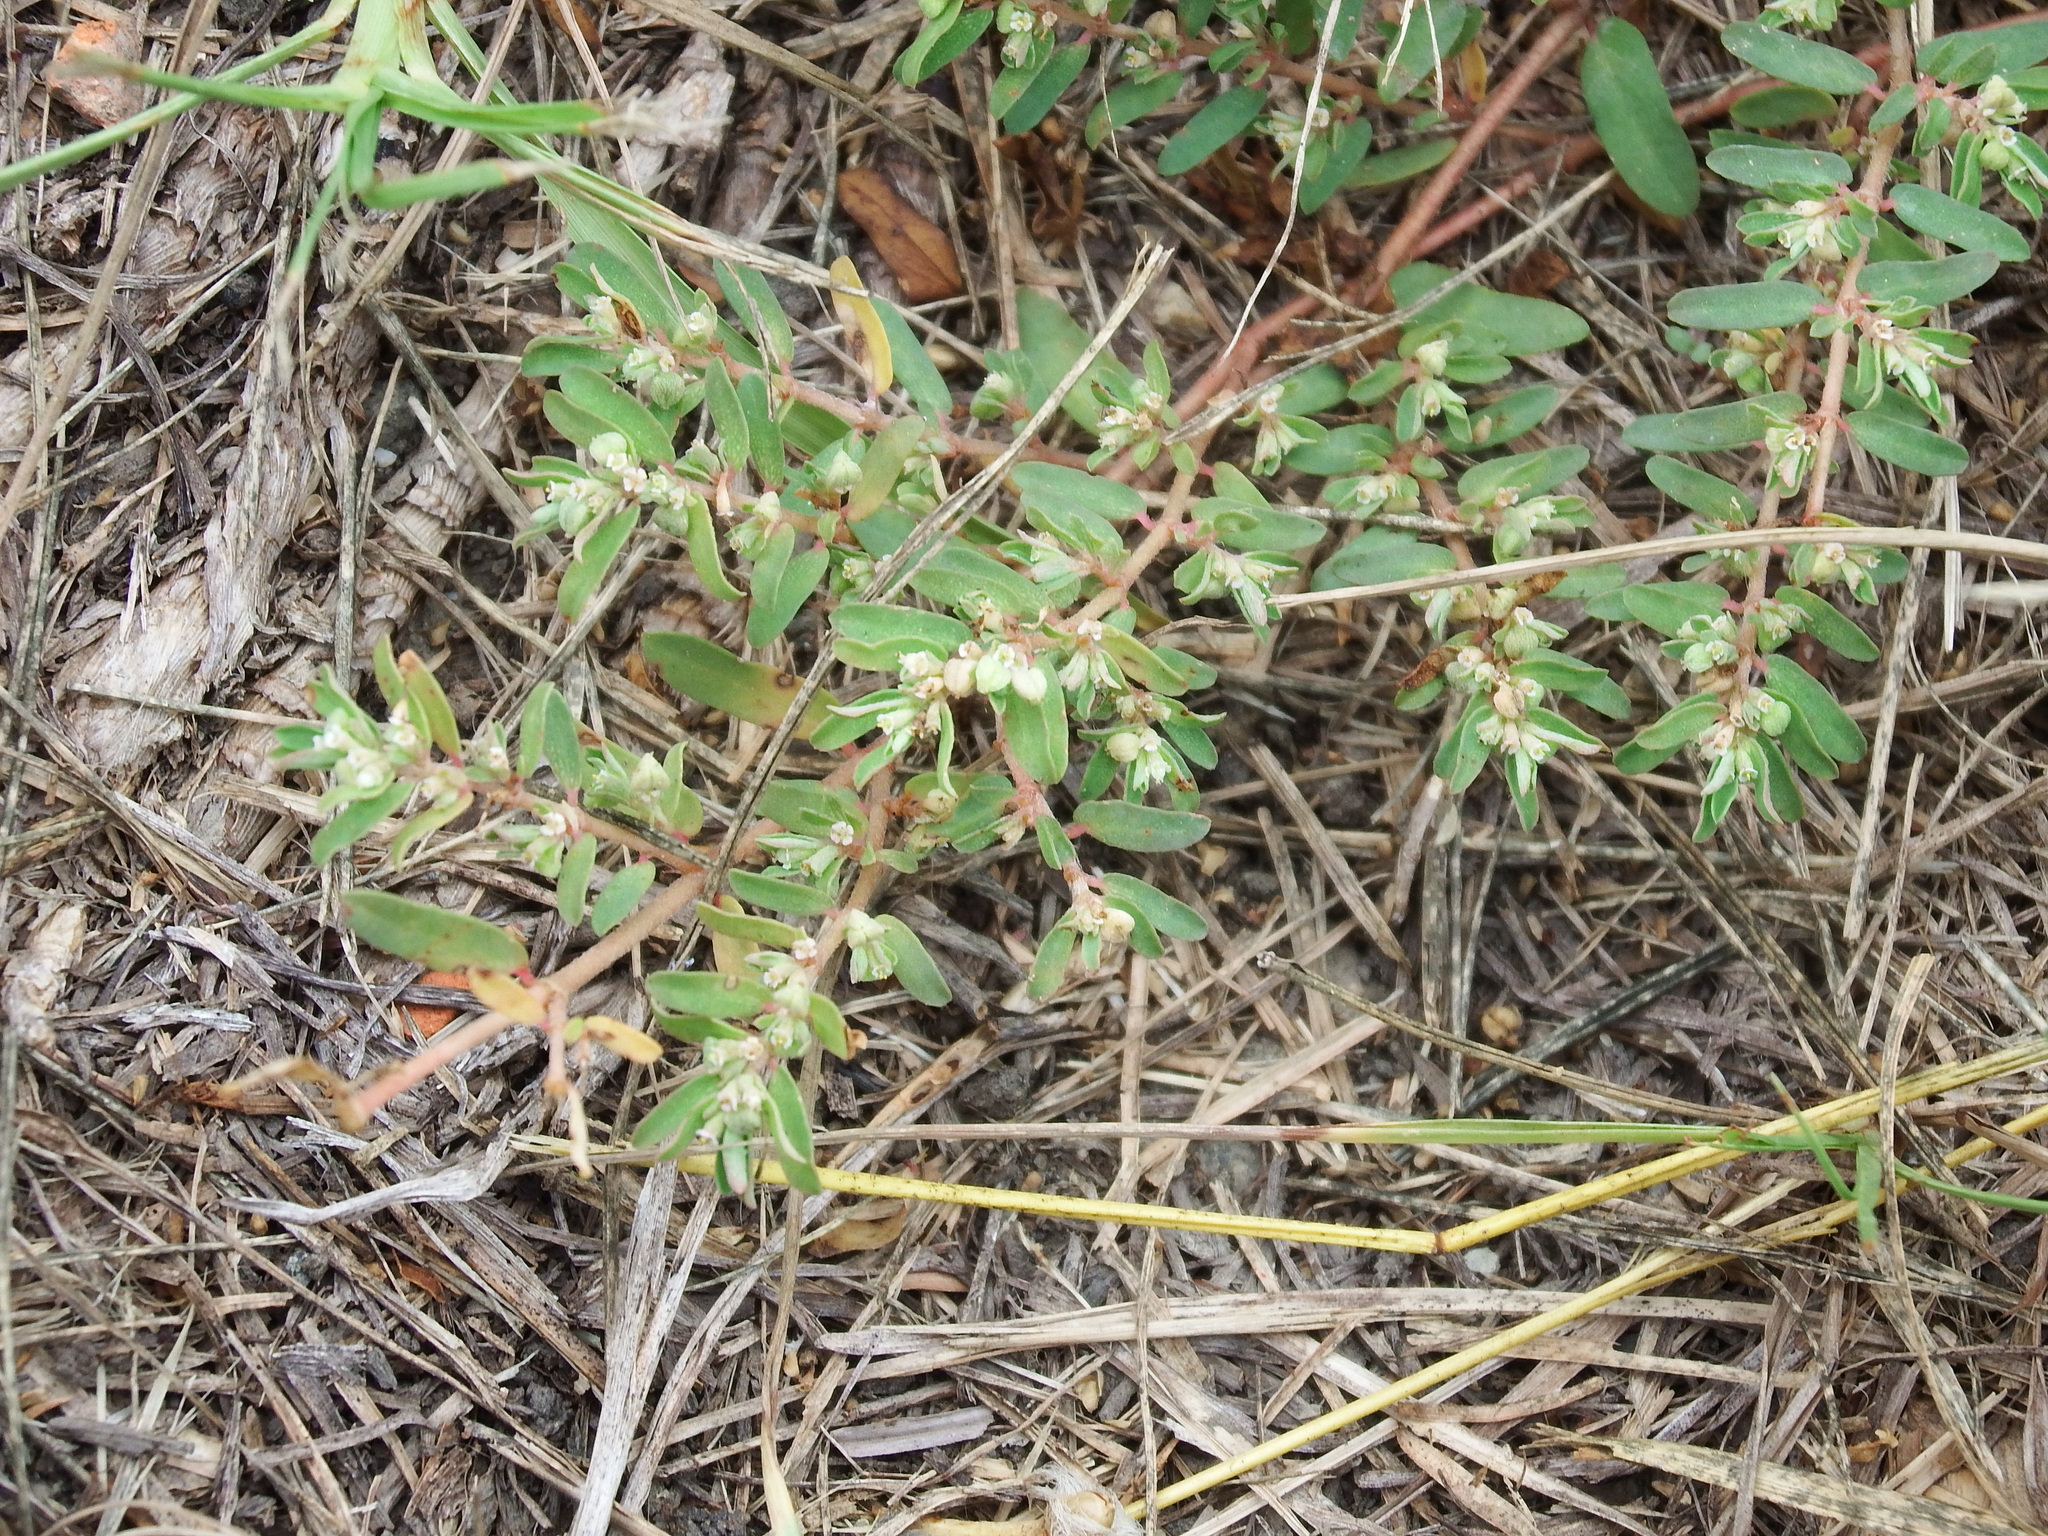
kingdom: Plantae
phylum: Tracheophyta
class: Magnoliopsida
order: Malpighiales
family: Euphorbiaceae
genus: Euphorbia
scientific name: Euphorbia maculata
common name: Spotted spurge
